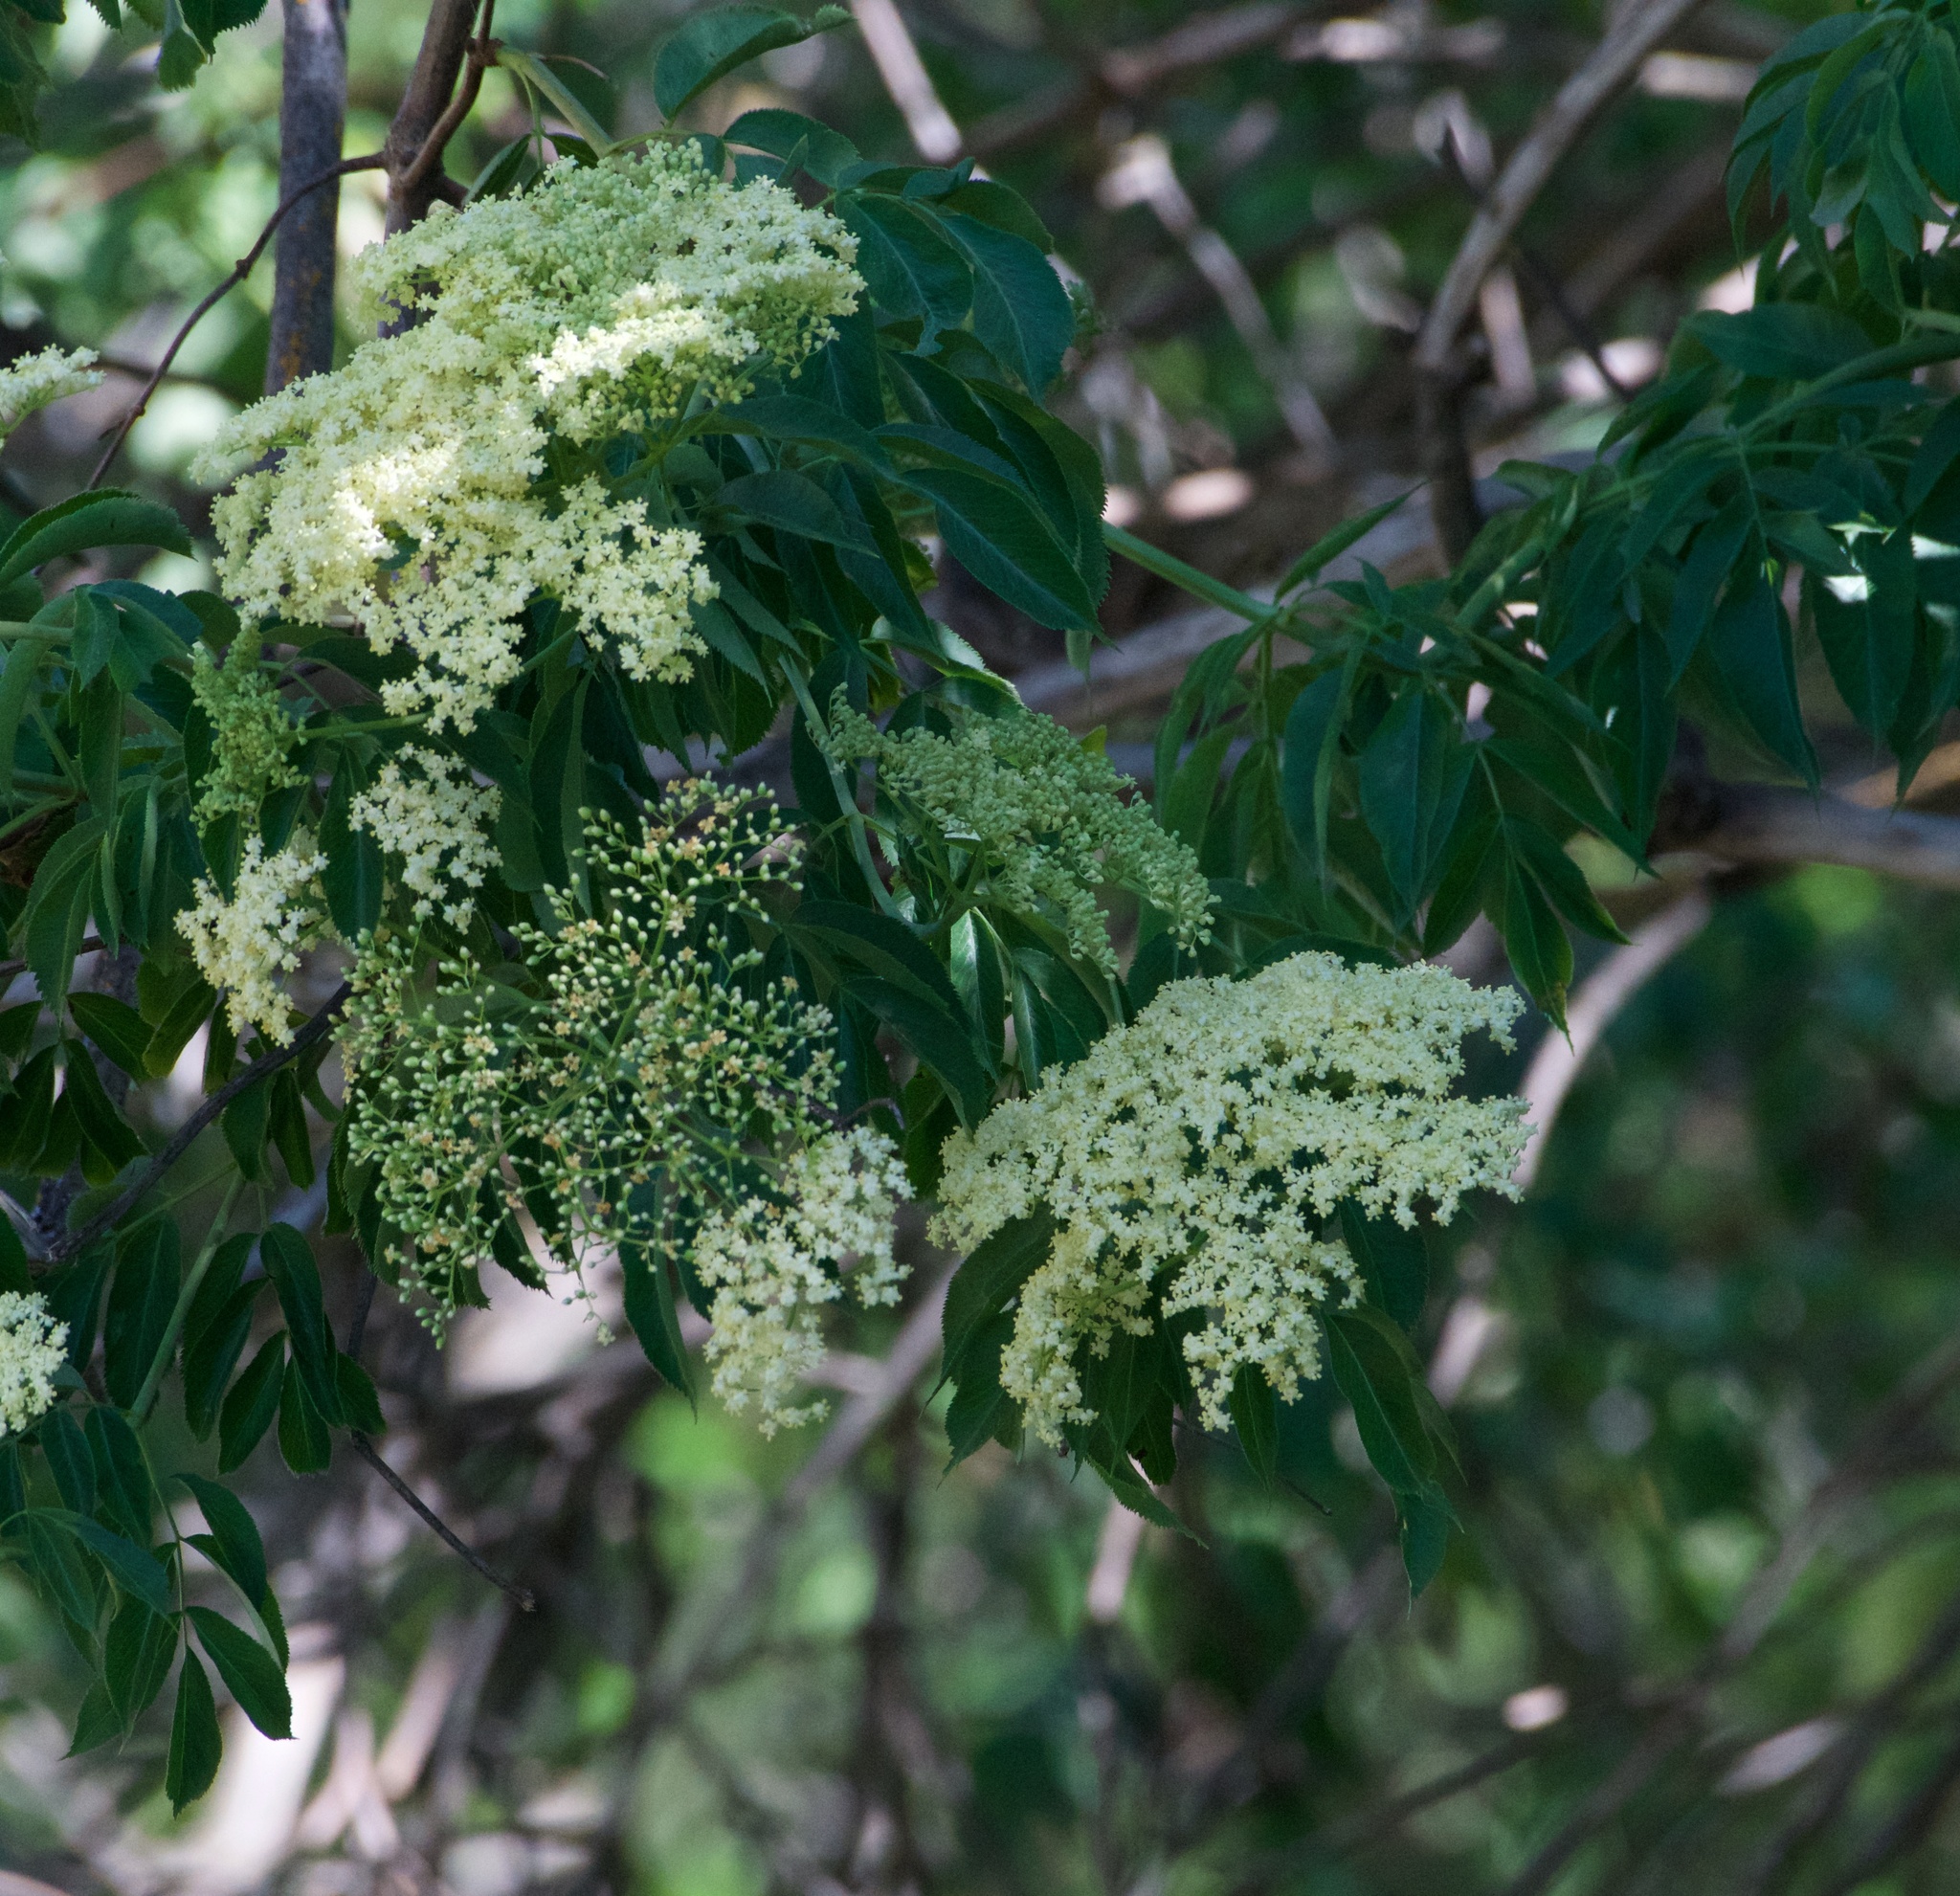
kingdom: Plantae
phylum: Tracheophyta
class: Magnoliopsida
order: Dipsacales
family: Viburnaceae
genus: Sambucus
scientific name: Sambucus cerulea
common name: Blue elder
